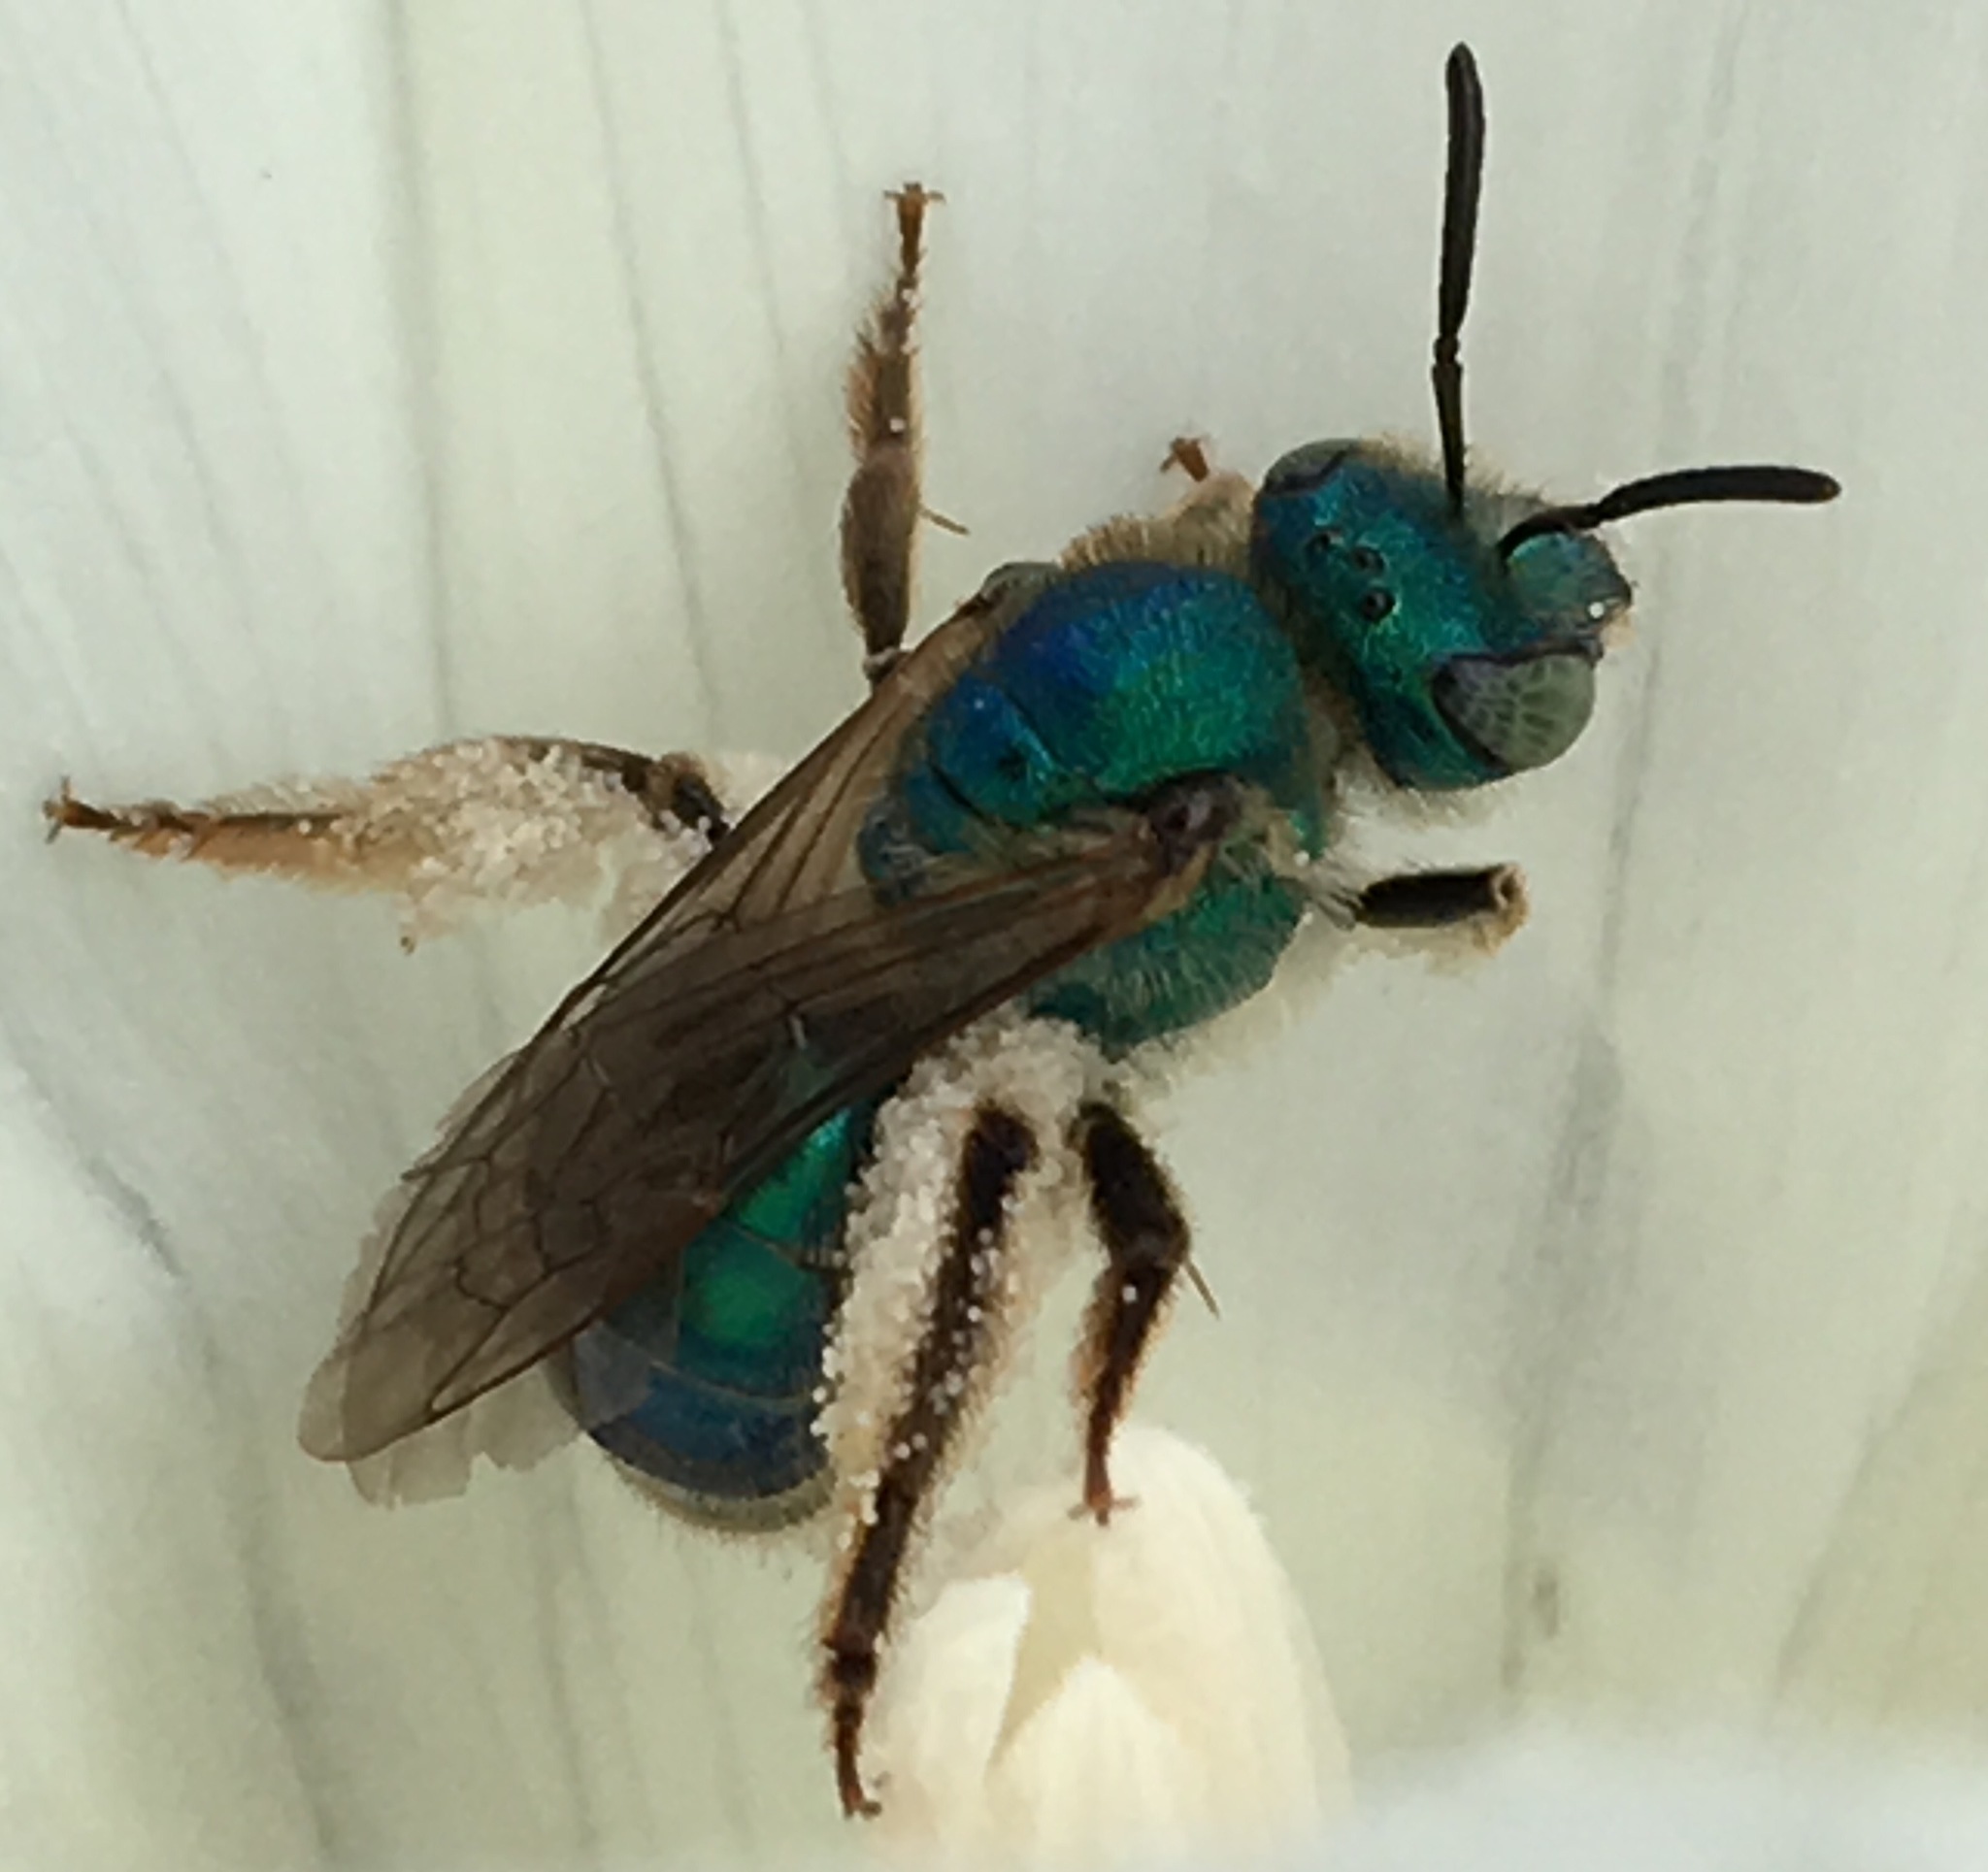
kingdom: Animalia
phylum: Arthropoda
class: Insecta
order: Hymenoptera
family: Halictidae
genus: Agapostemon
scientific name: Agapostemon texanus
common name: Texas striped sweat bee
